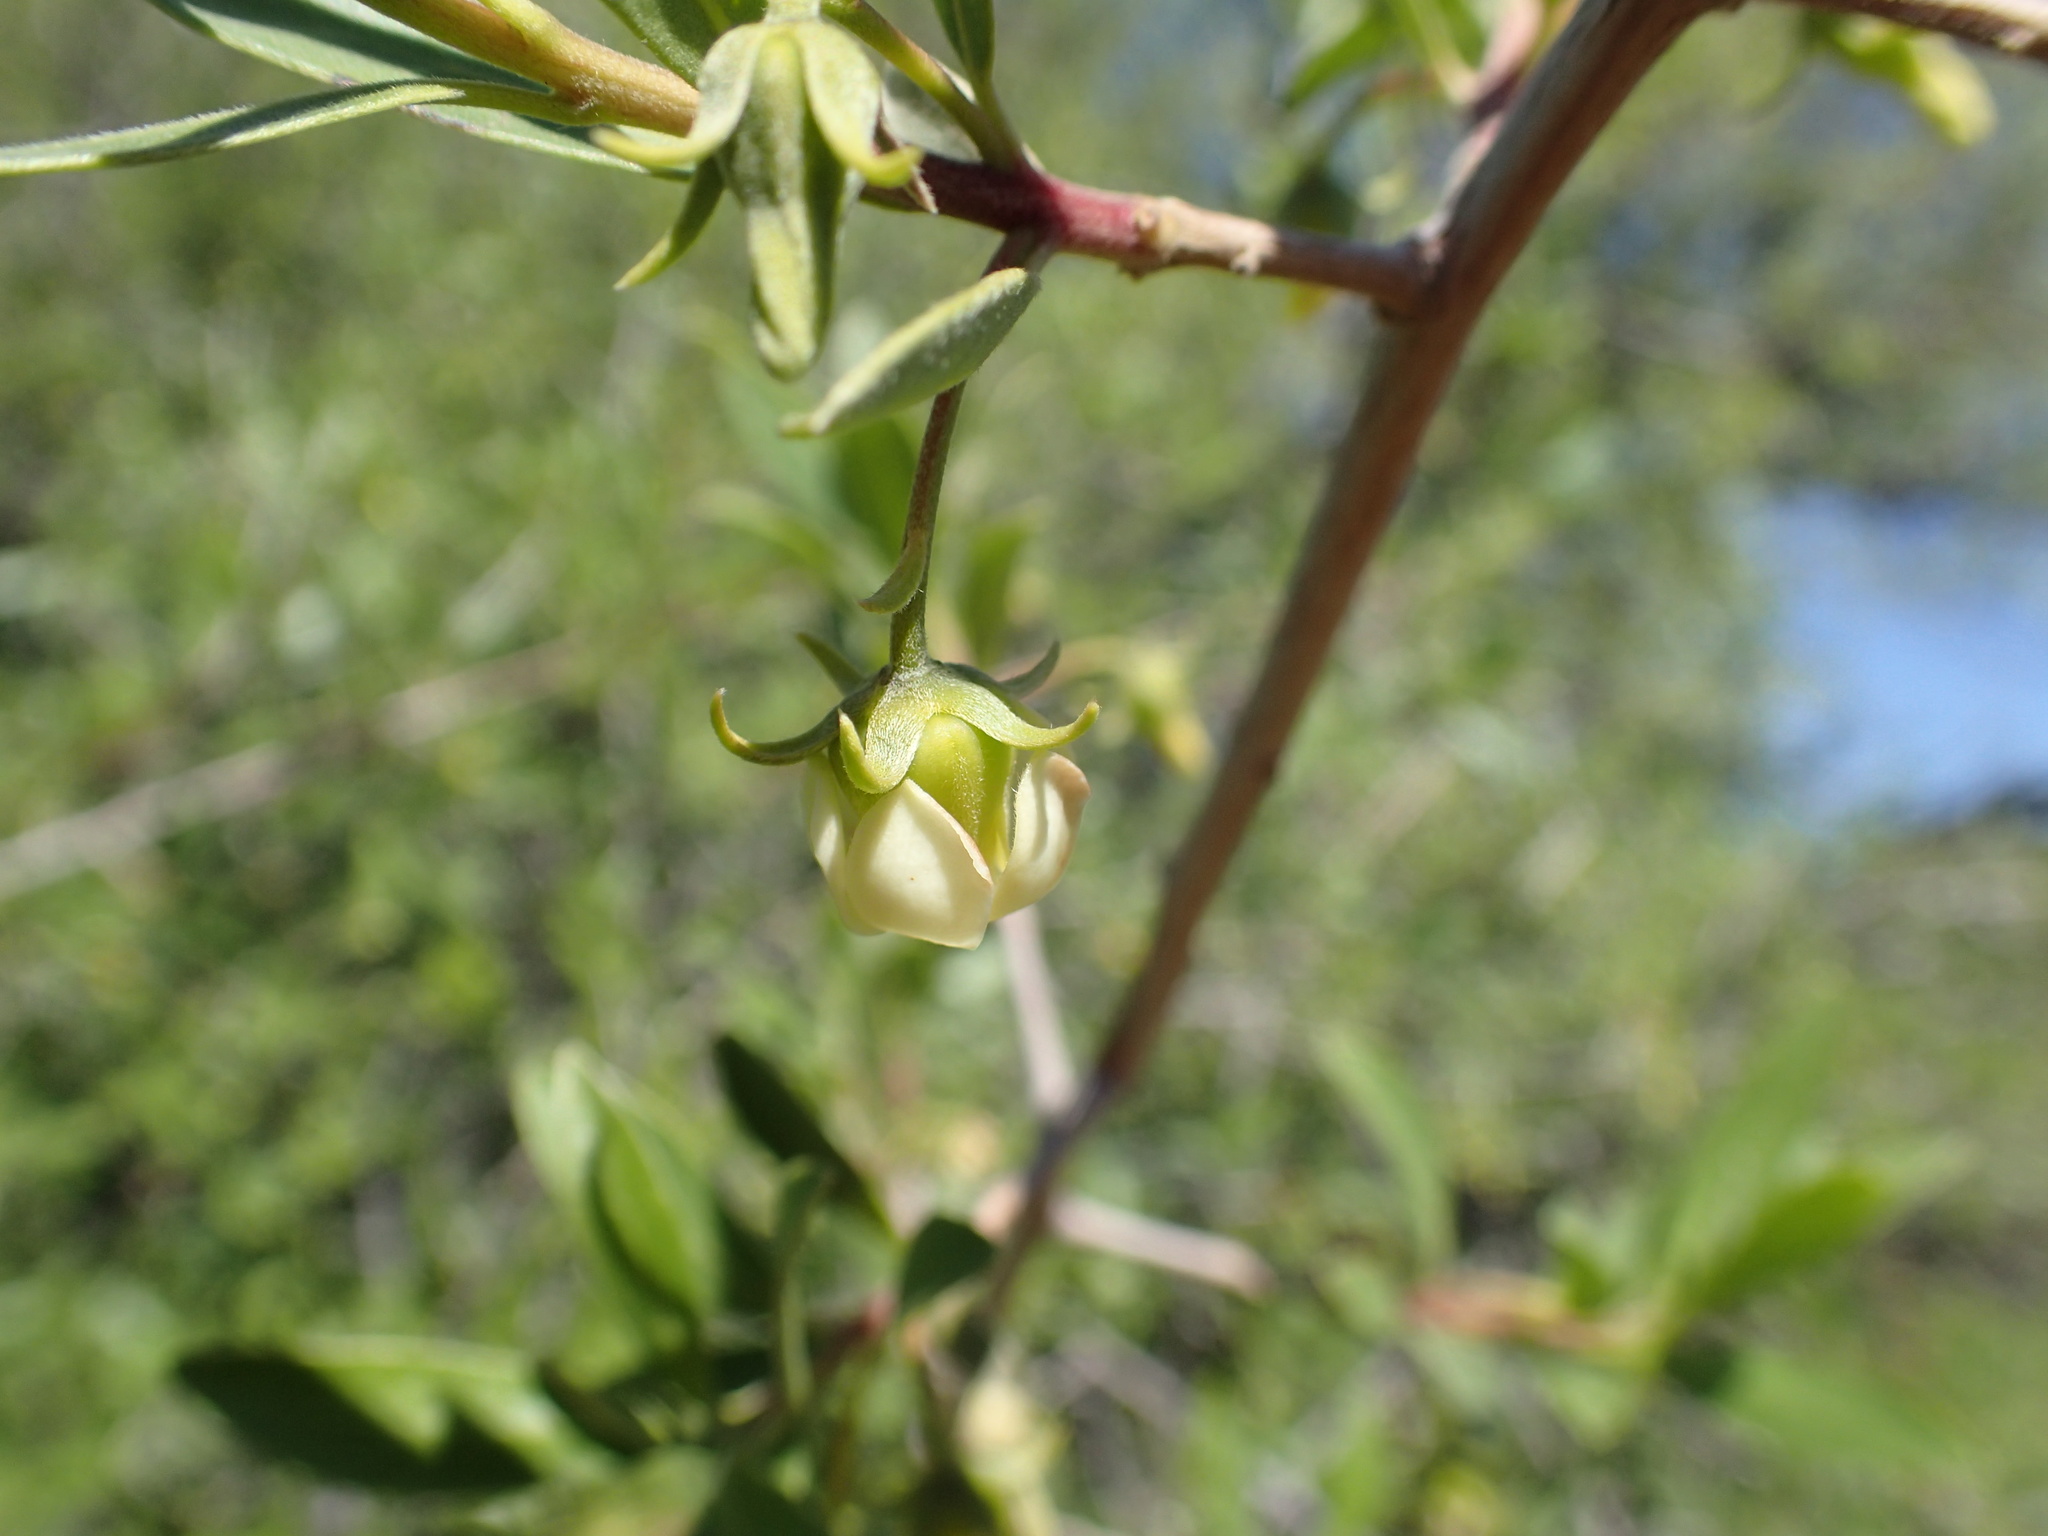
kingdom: Plantae
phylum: Tracheophyta
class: Magnoliopsida
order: Ericales
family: Ebenaceae
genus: Diospyros
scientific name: Diospyros lycioides
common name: Red star apple
